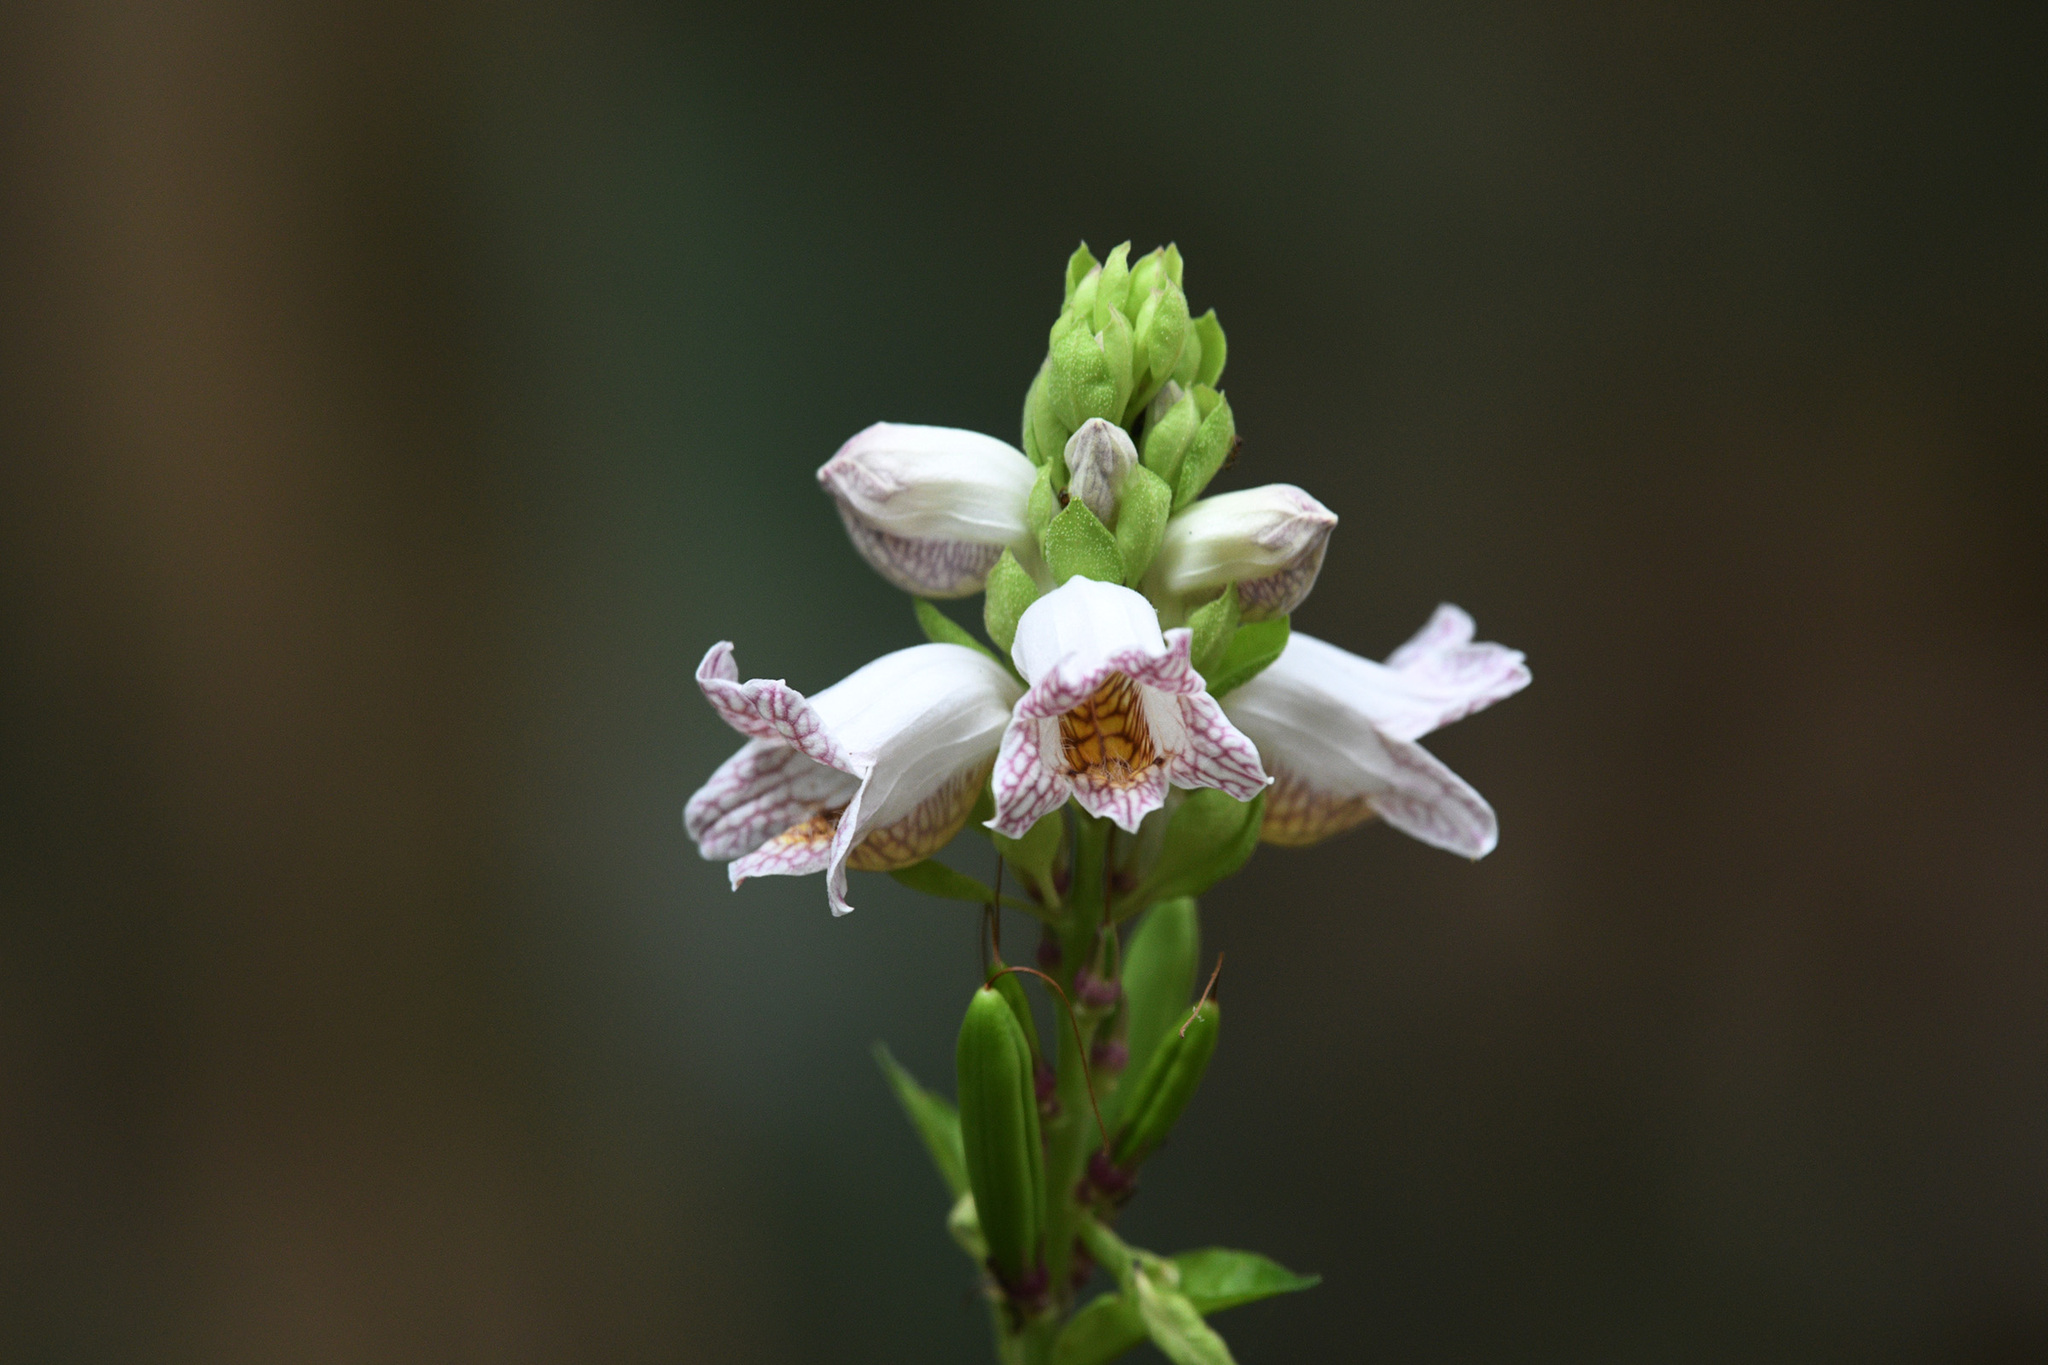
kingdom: Plantae
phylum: Tracheophyta
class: Magnoliopsida
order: Lamiales
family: Acanthaceae
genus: Phlogacanthus
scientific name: Phlogacanthus turgidus
